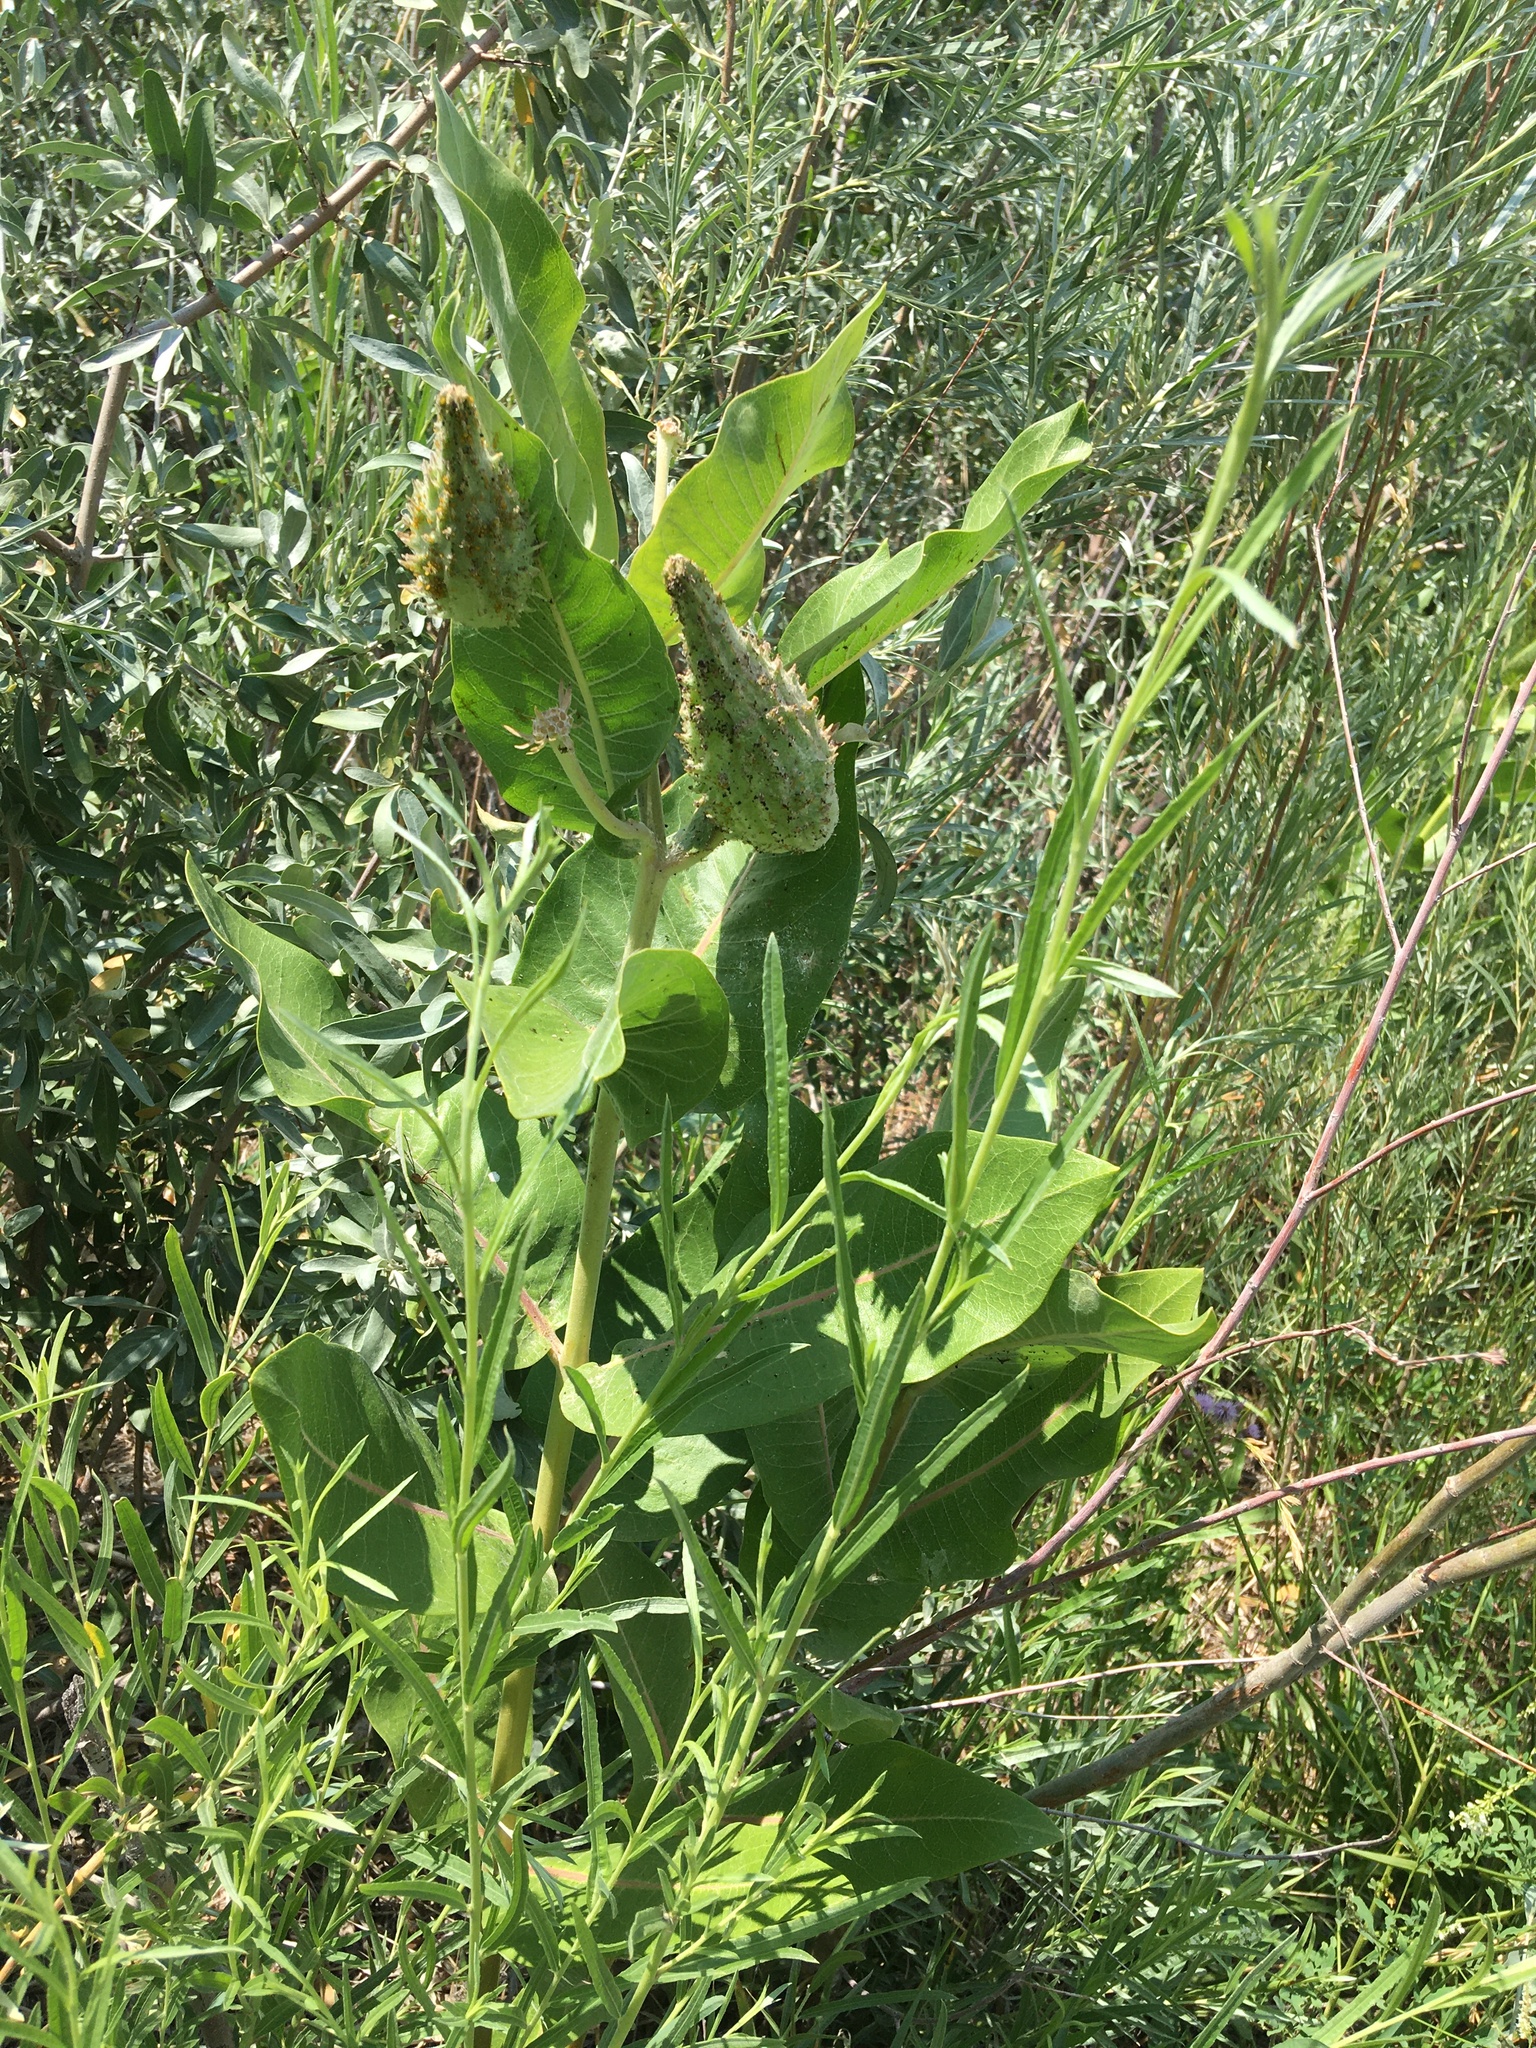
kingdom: Plantae
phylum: Tracheophyta
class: Magnoliopsida
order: Gentianales
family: Apocynaceae
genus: Asclepias
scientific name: Asclepias speciosa
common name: Showy milkweed
